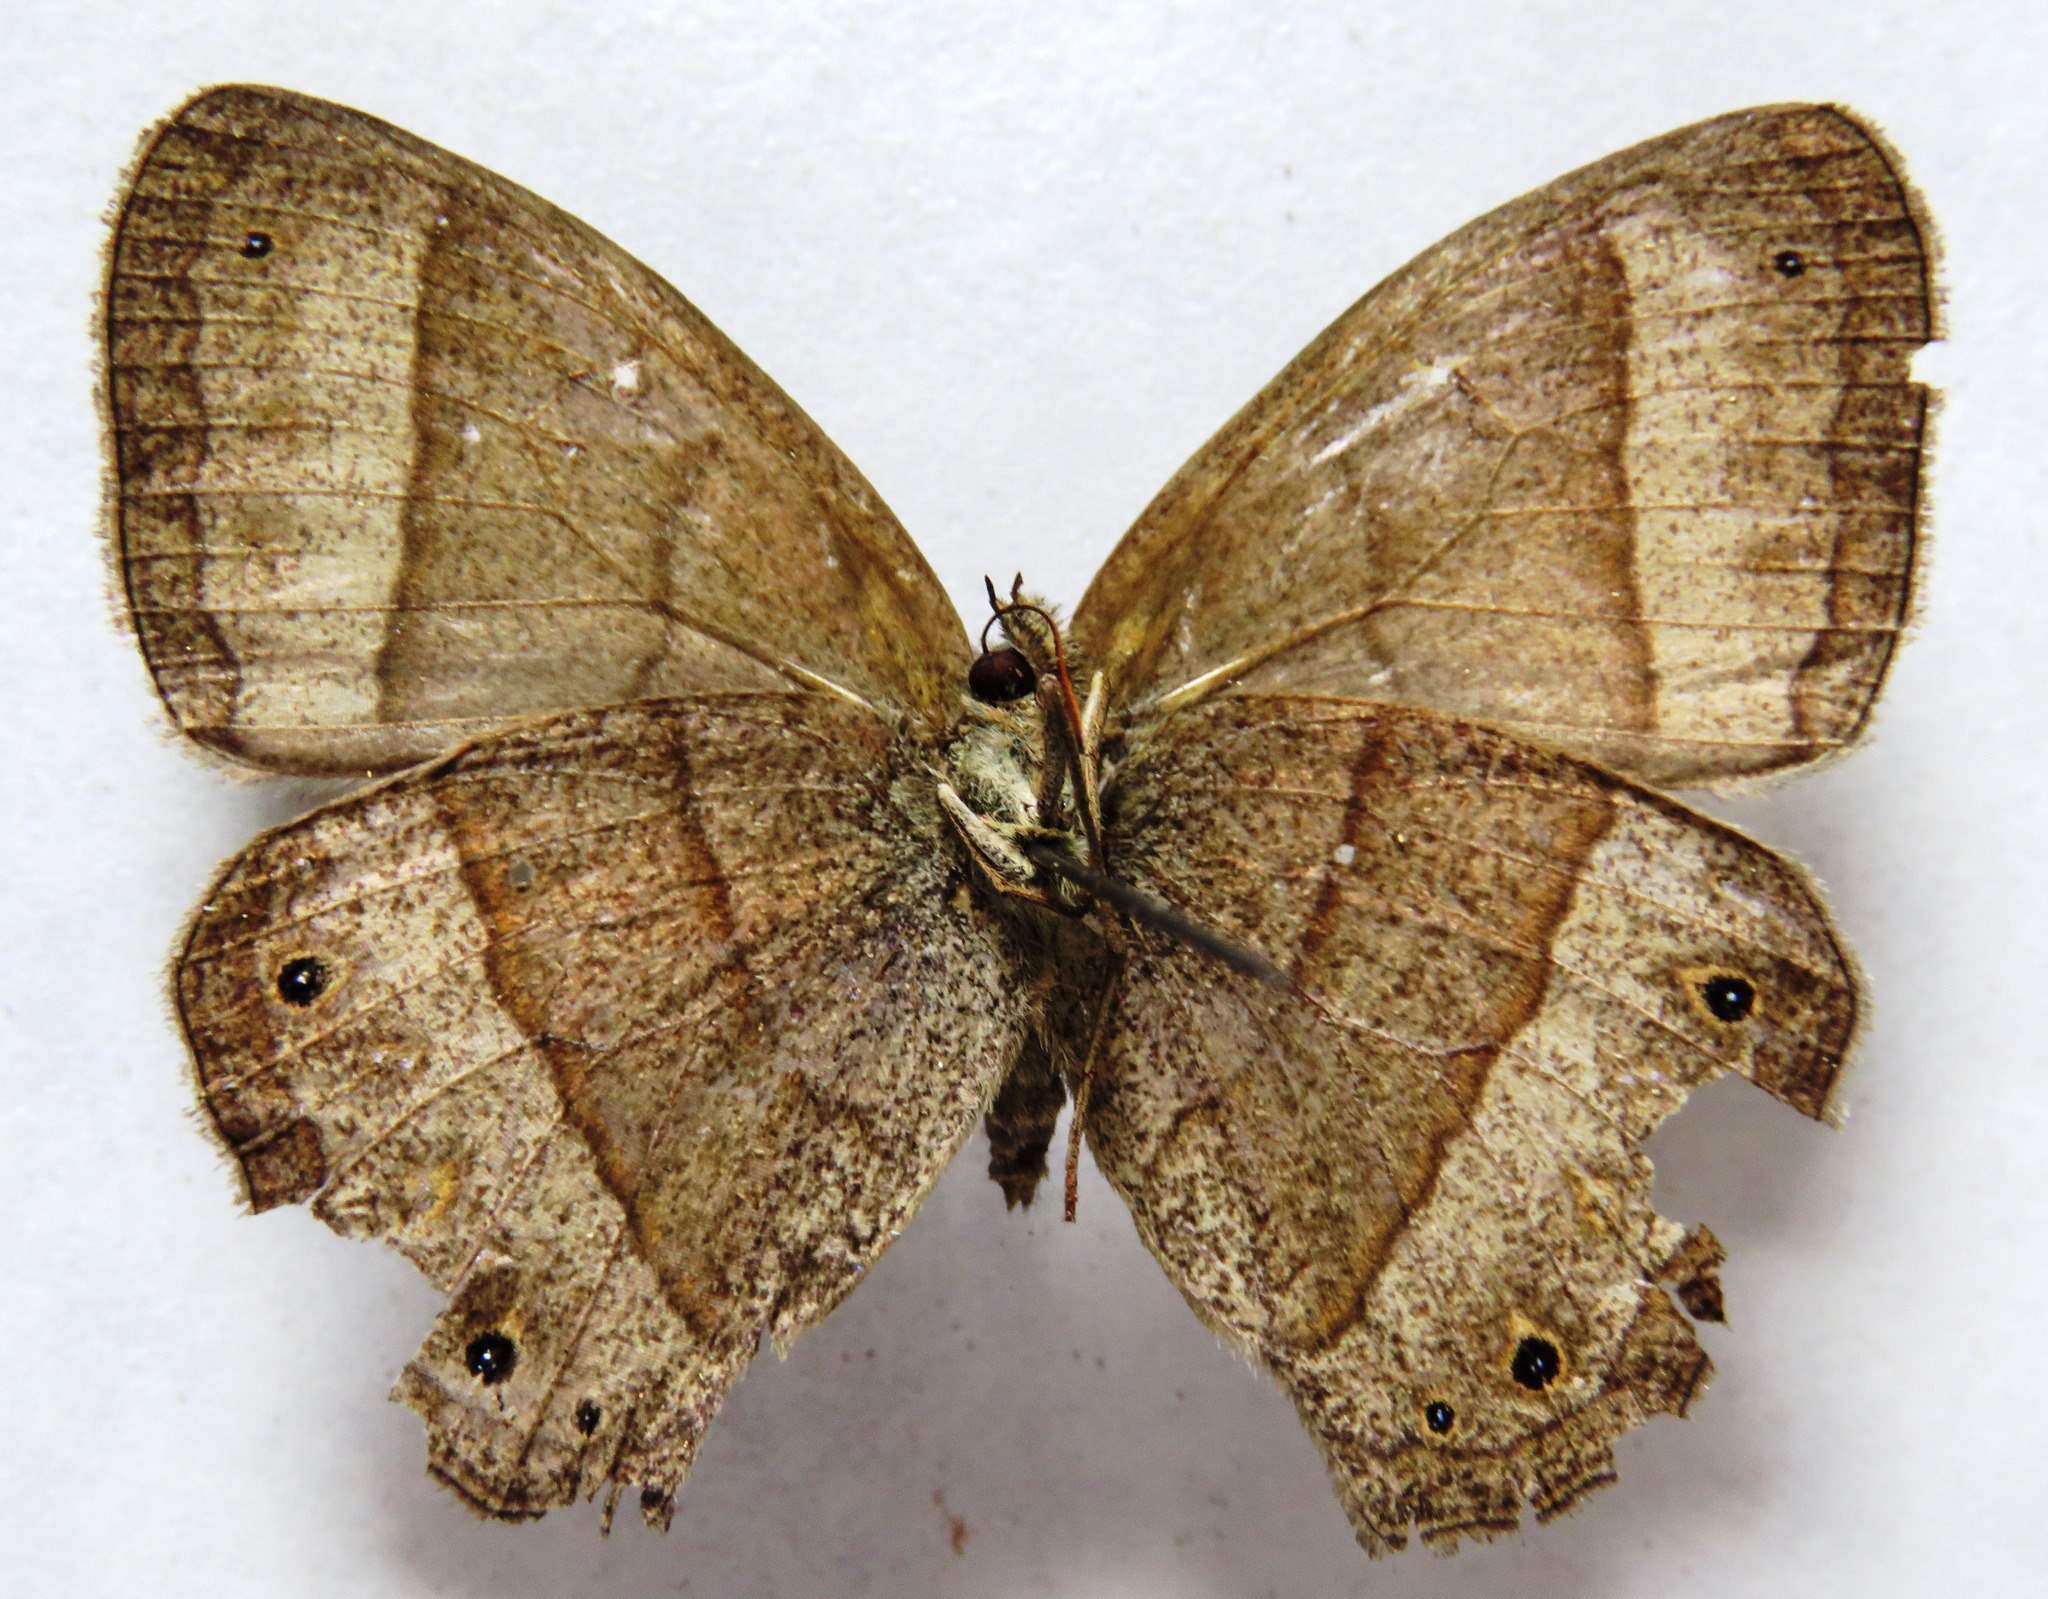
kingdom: Animalia
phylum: Arthropoda
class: Insecta
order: Lepidoptera
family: Nymphalidae
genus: Yphthimoides
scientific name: Yphthimoides renata
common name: Renata’s satyr
